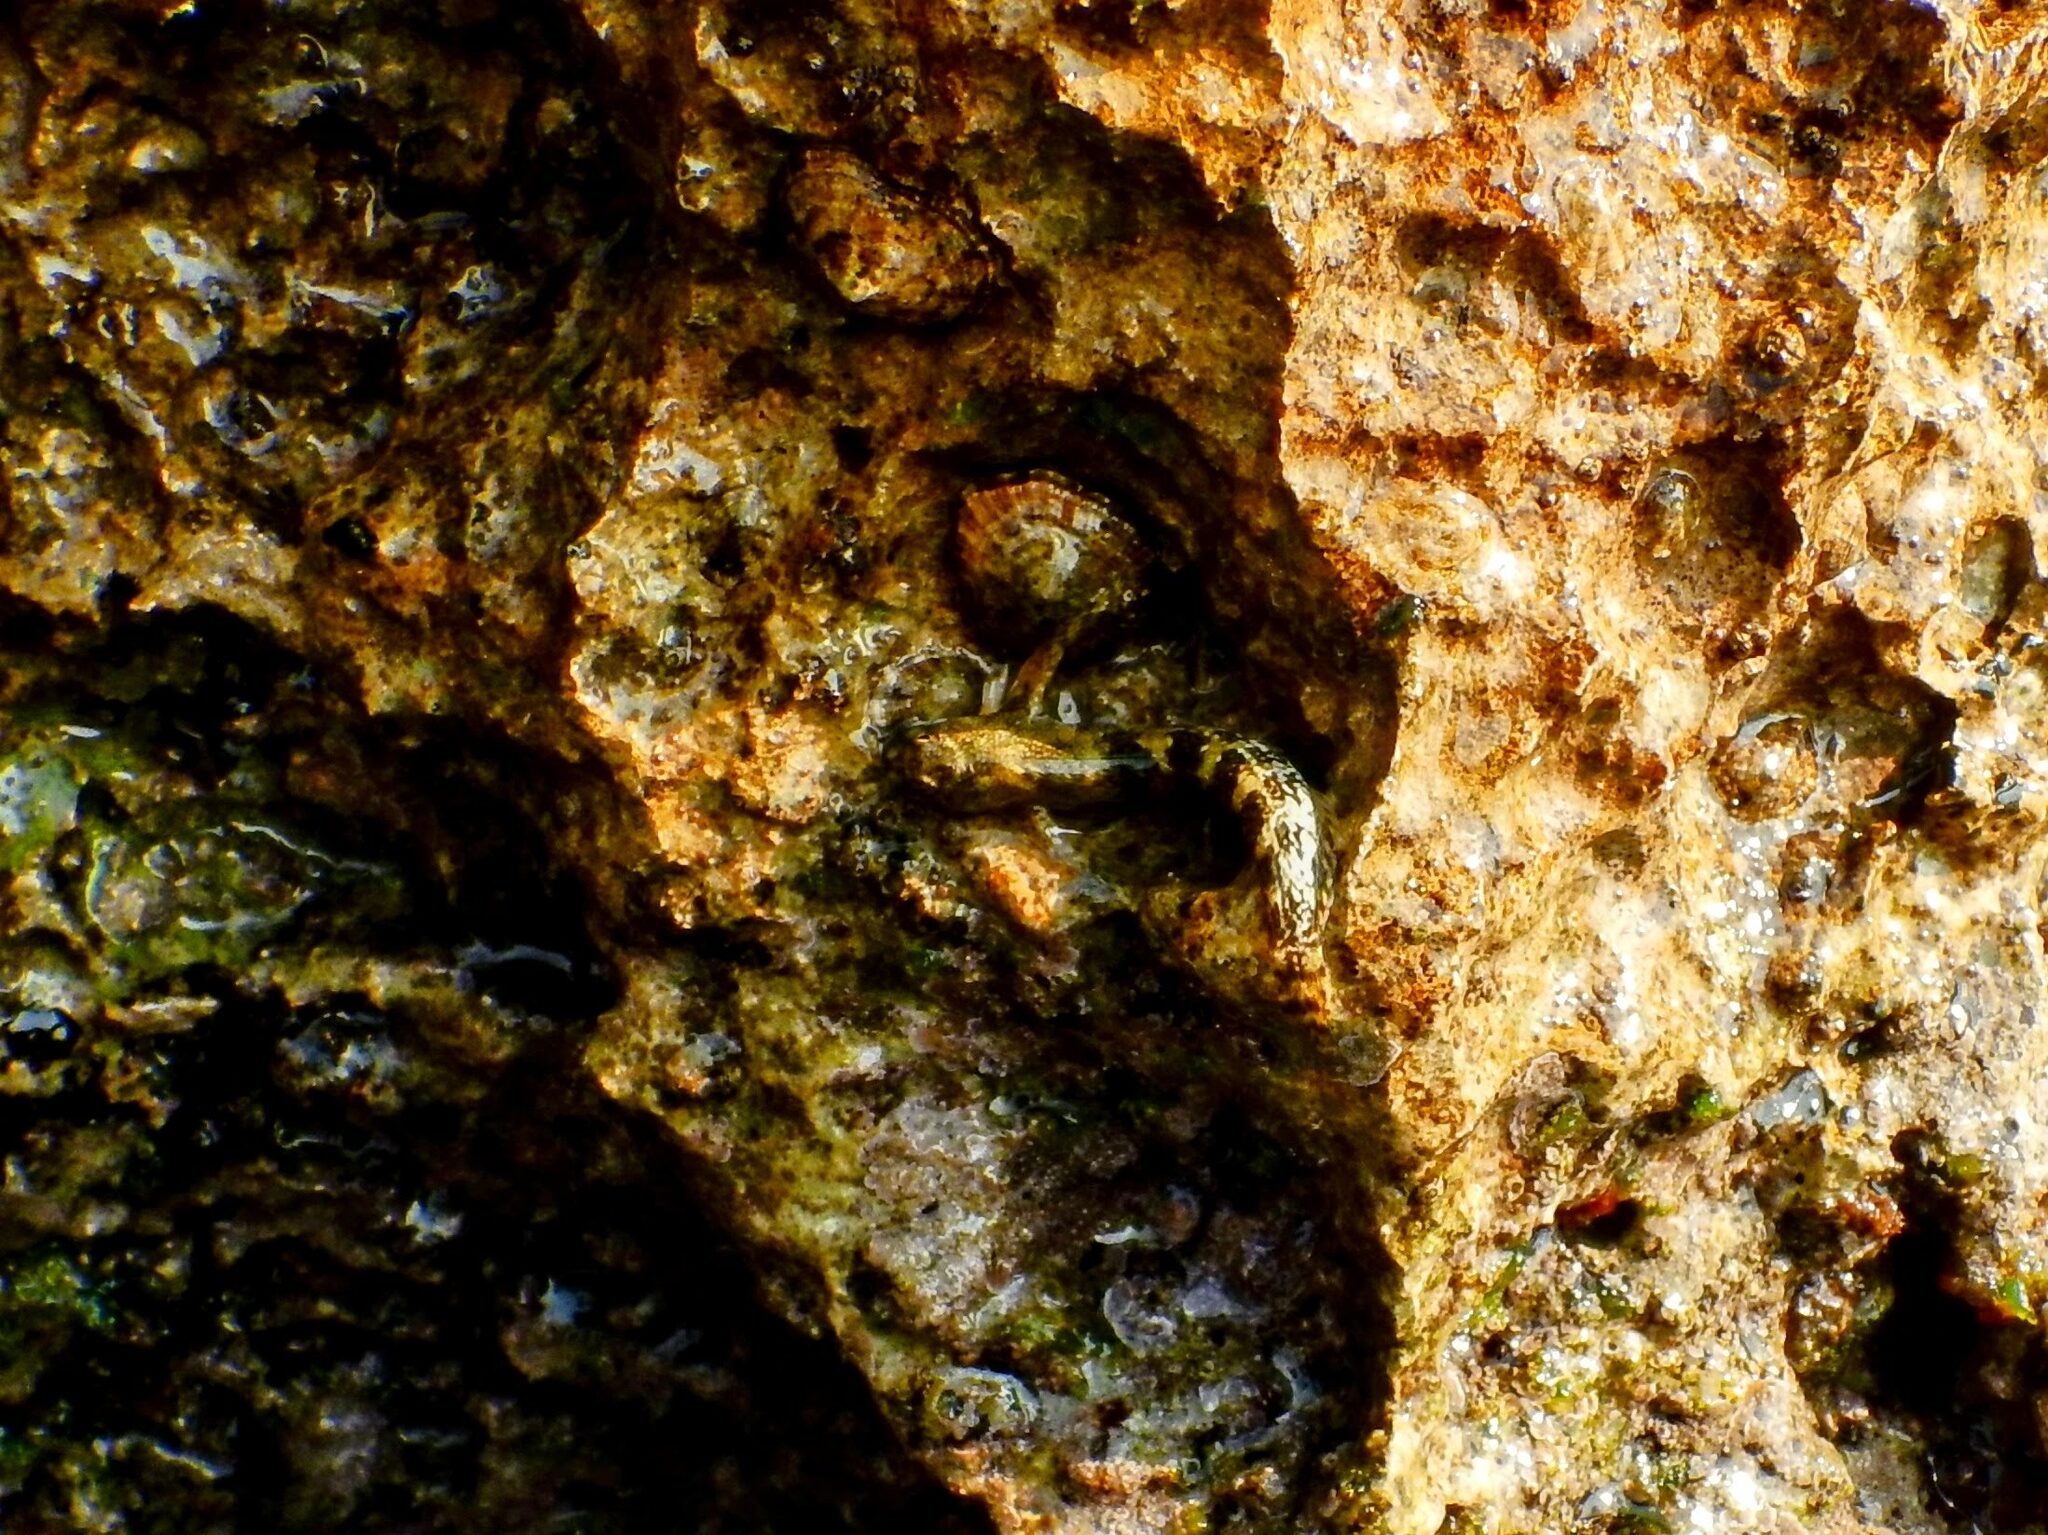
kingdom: Animalia
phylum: Chordata
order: Perciformes
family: Blenniidae
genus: Coryphoblennius
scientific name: Coryphoblennius galerita
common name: Montagu's blenny
